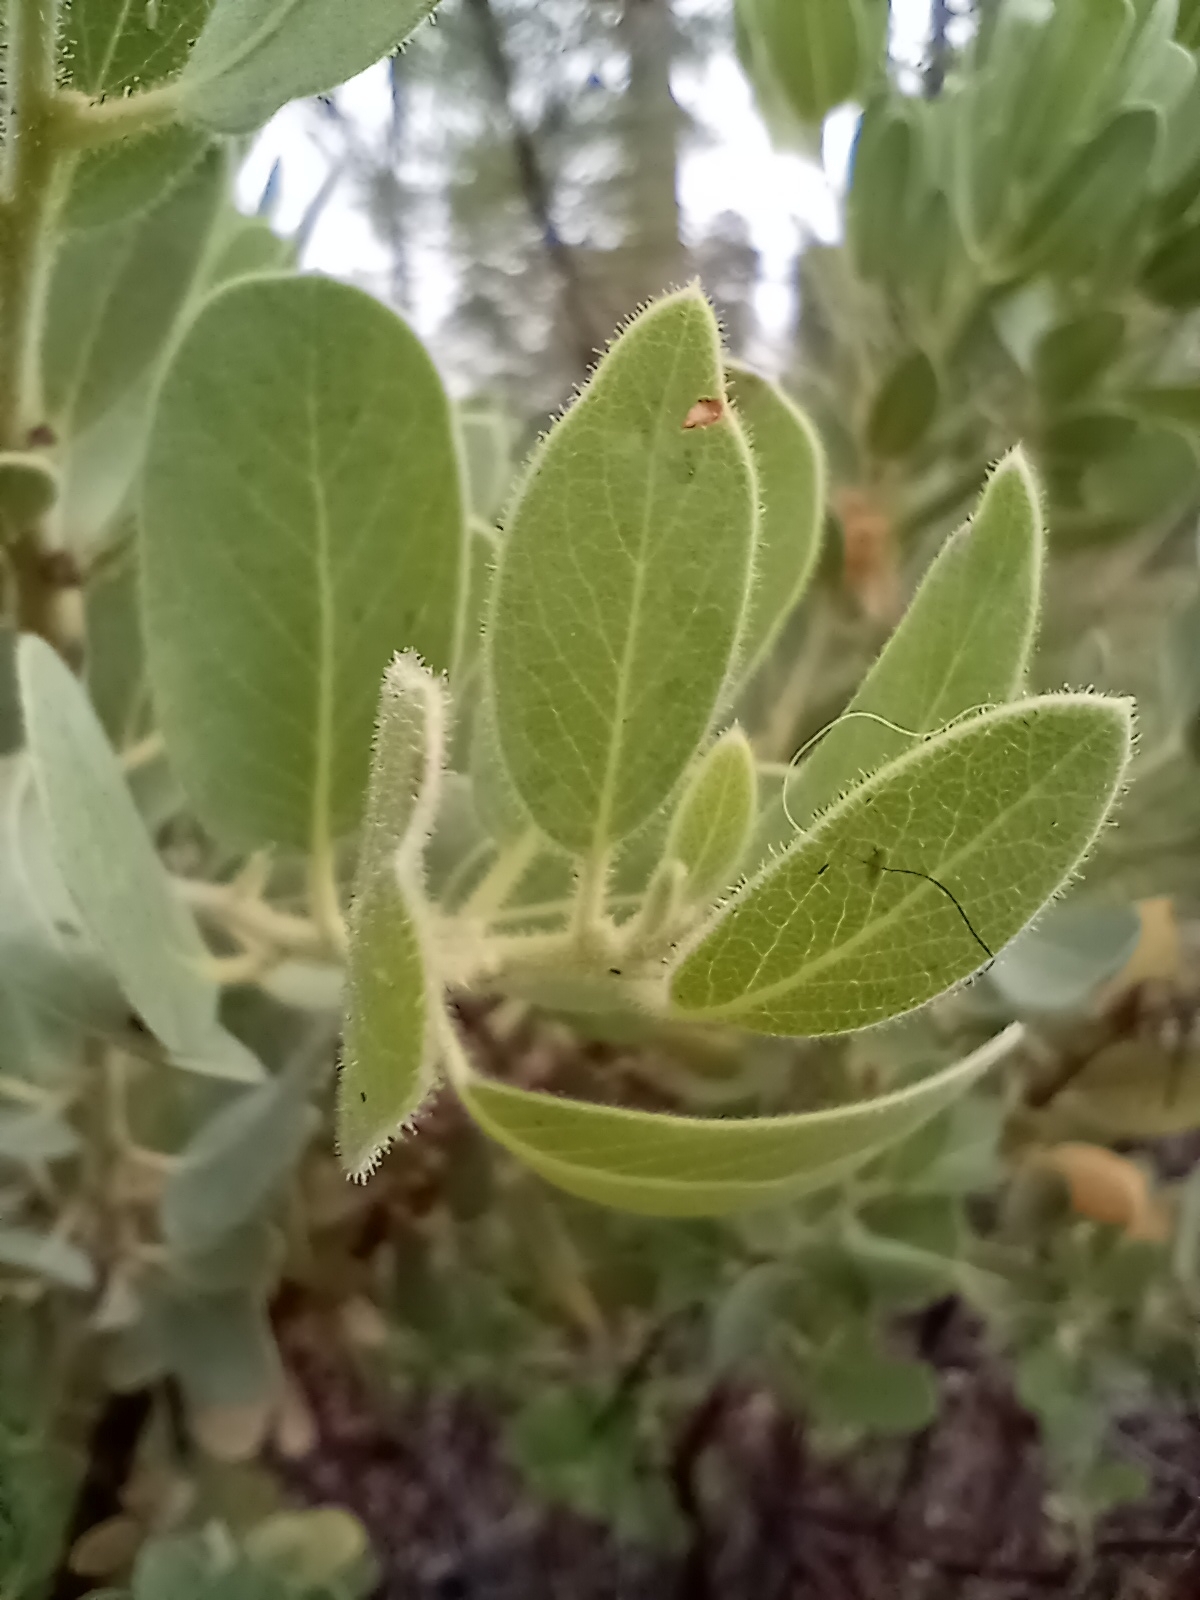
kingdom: Plantae
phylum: Tracheophyta
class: Magnoliopsida
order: Ericales
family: Ericaceae
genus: Arctostaphylos
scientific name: Arctostaphylos pringlei
